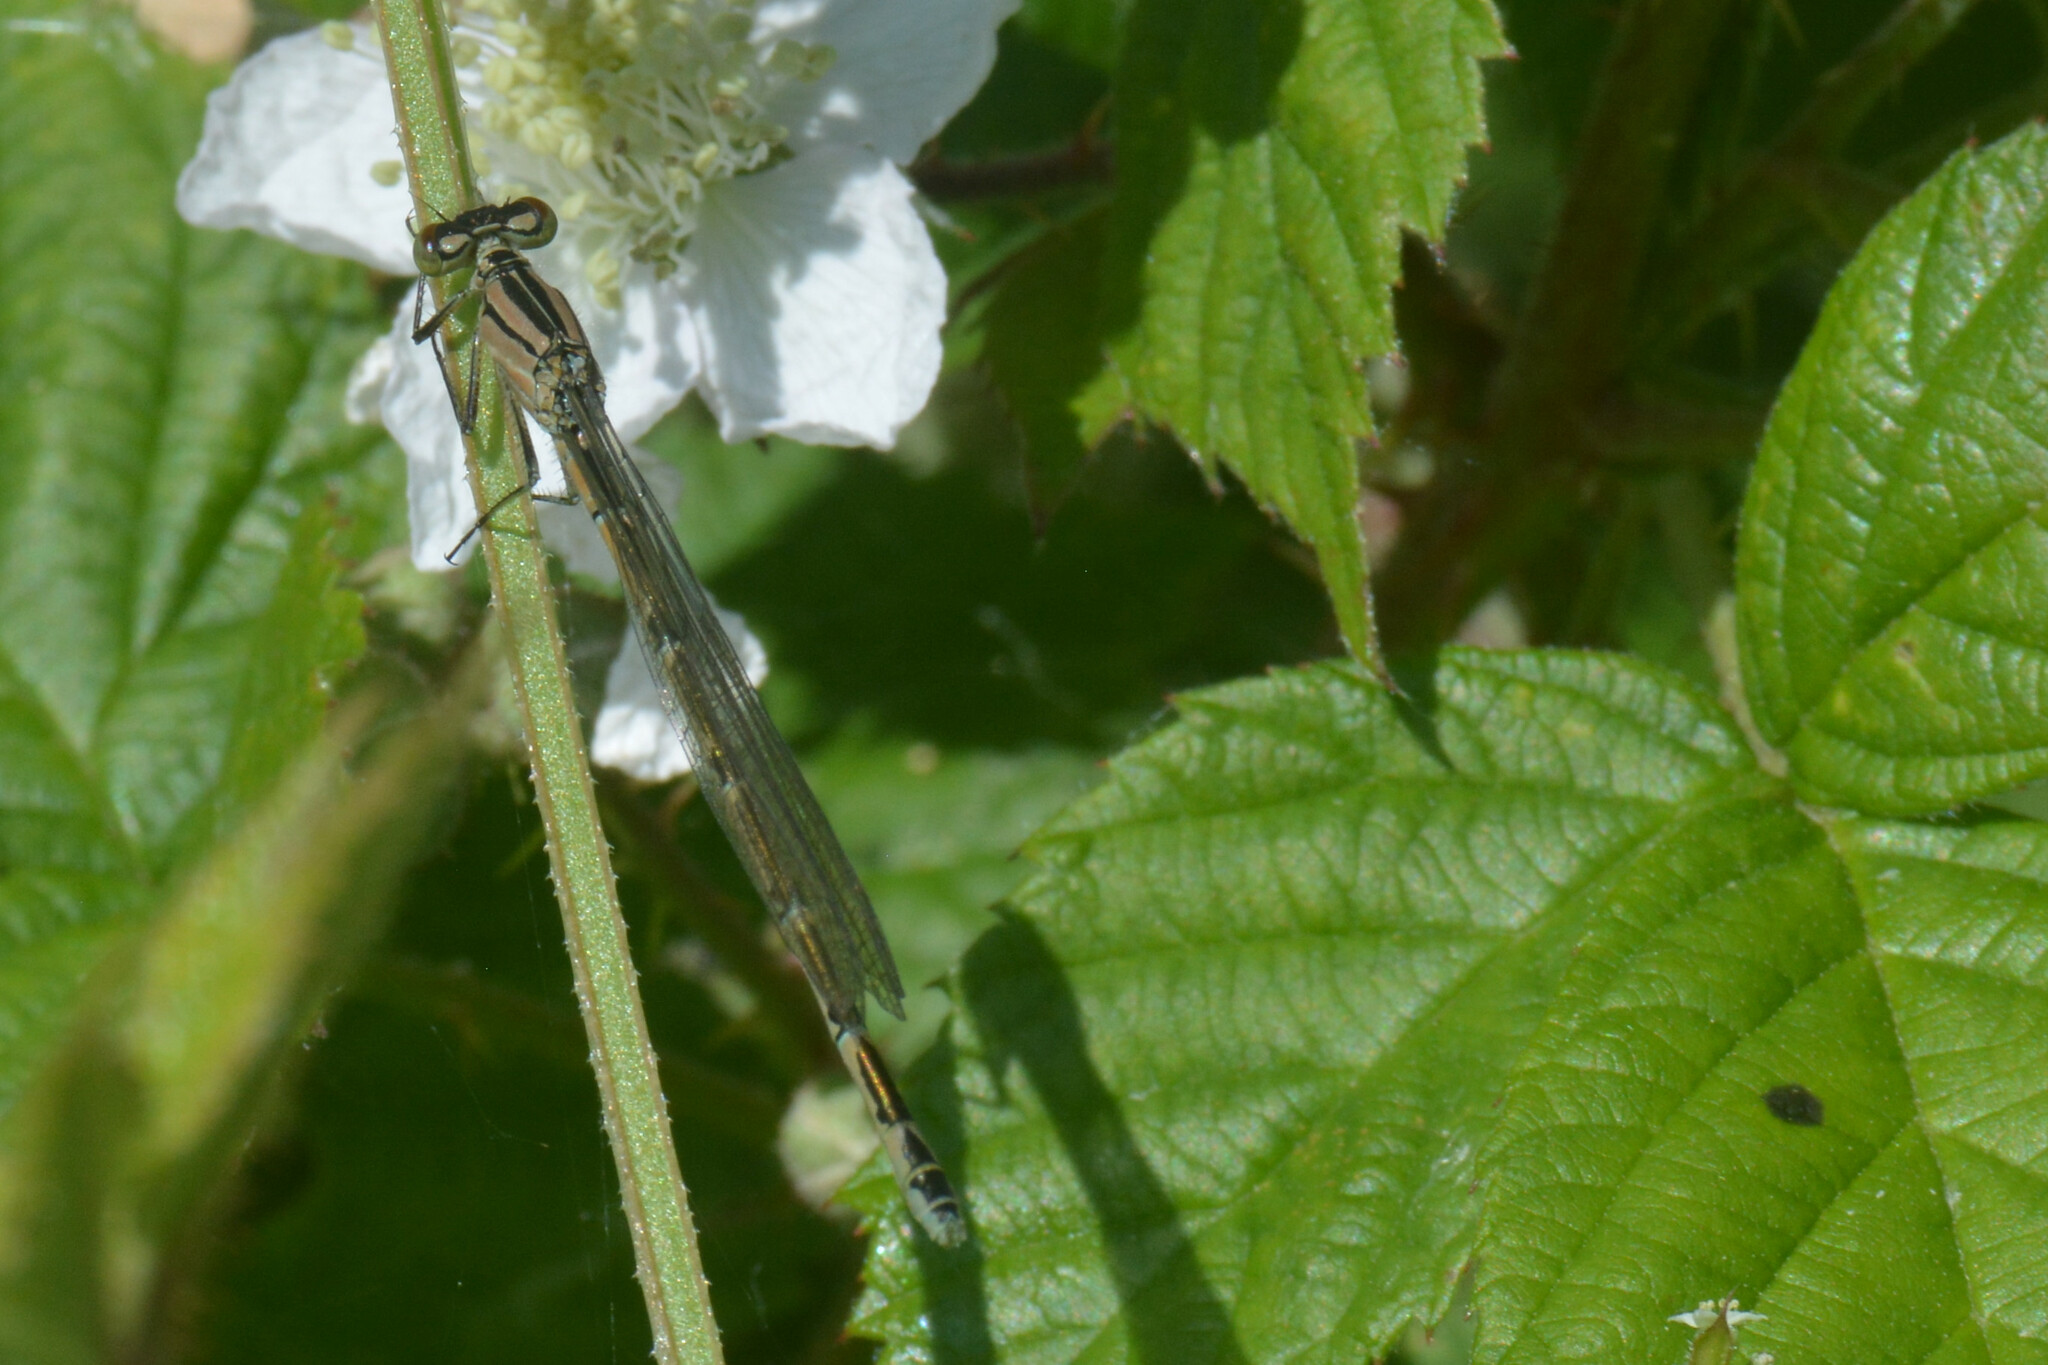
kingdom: Animalia
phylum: Arthropoda
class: Insecta
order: Odonata
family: Coenagrionidae
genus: Enallagma
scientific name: Enallagma cyathigerum
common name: Common blue damselfly
